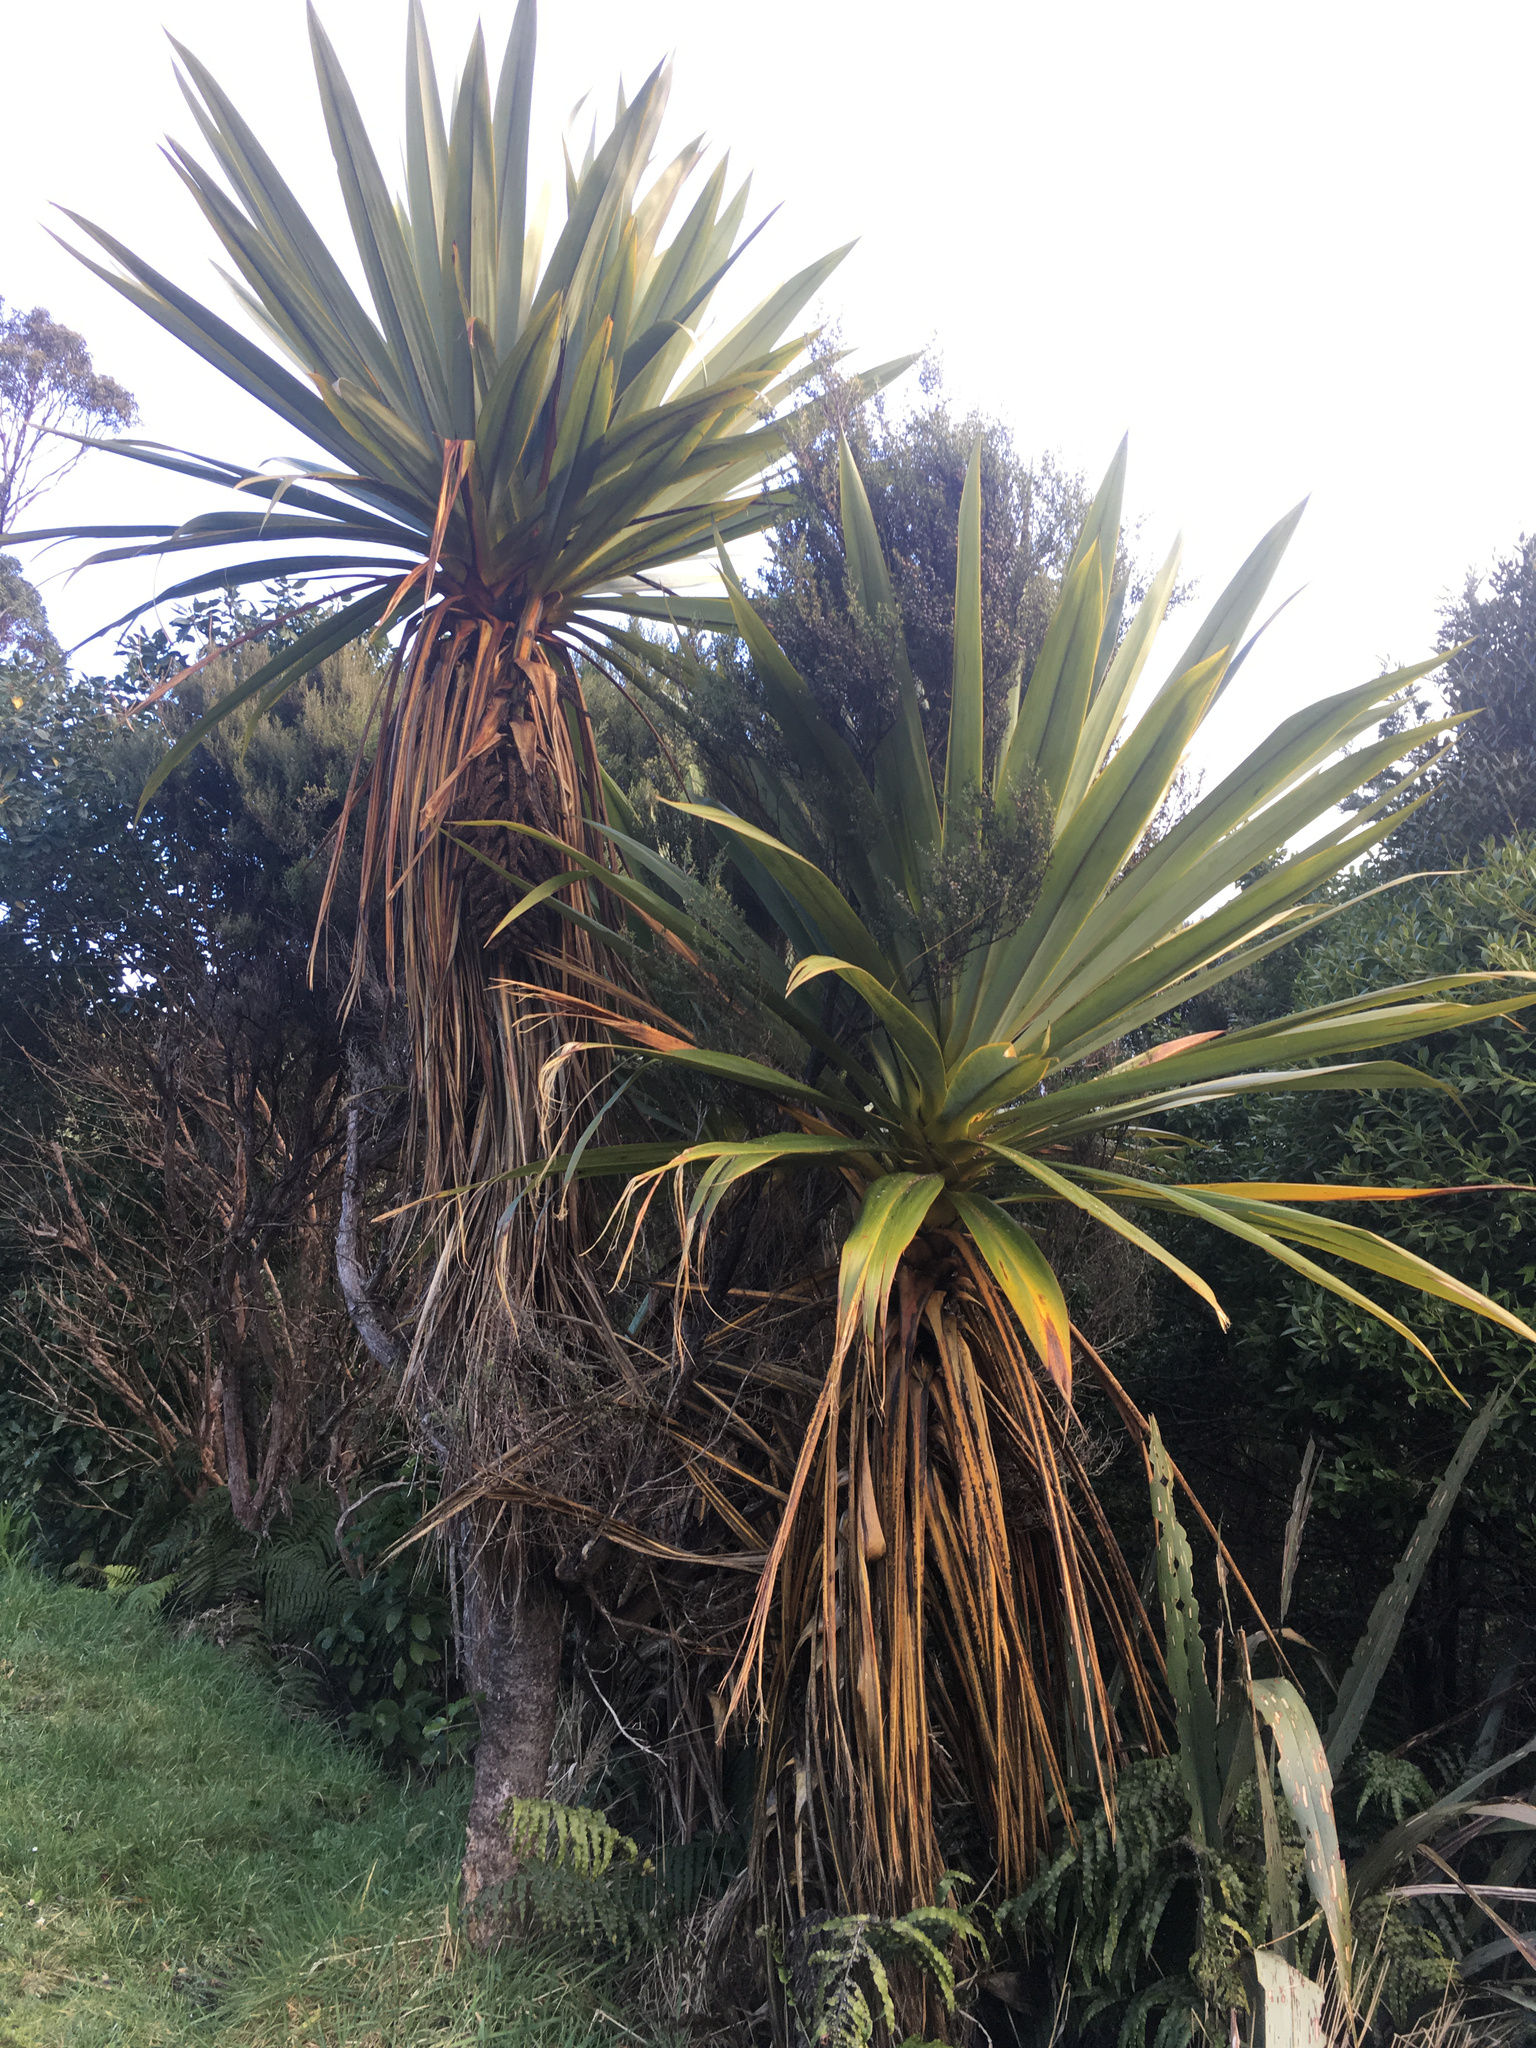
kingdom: Plantae
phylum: Tracheophyta
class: Liliopsida
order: Asparagales
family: Asparagaceae
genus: Cordyline
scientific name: Cordyline indivisa
